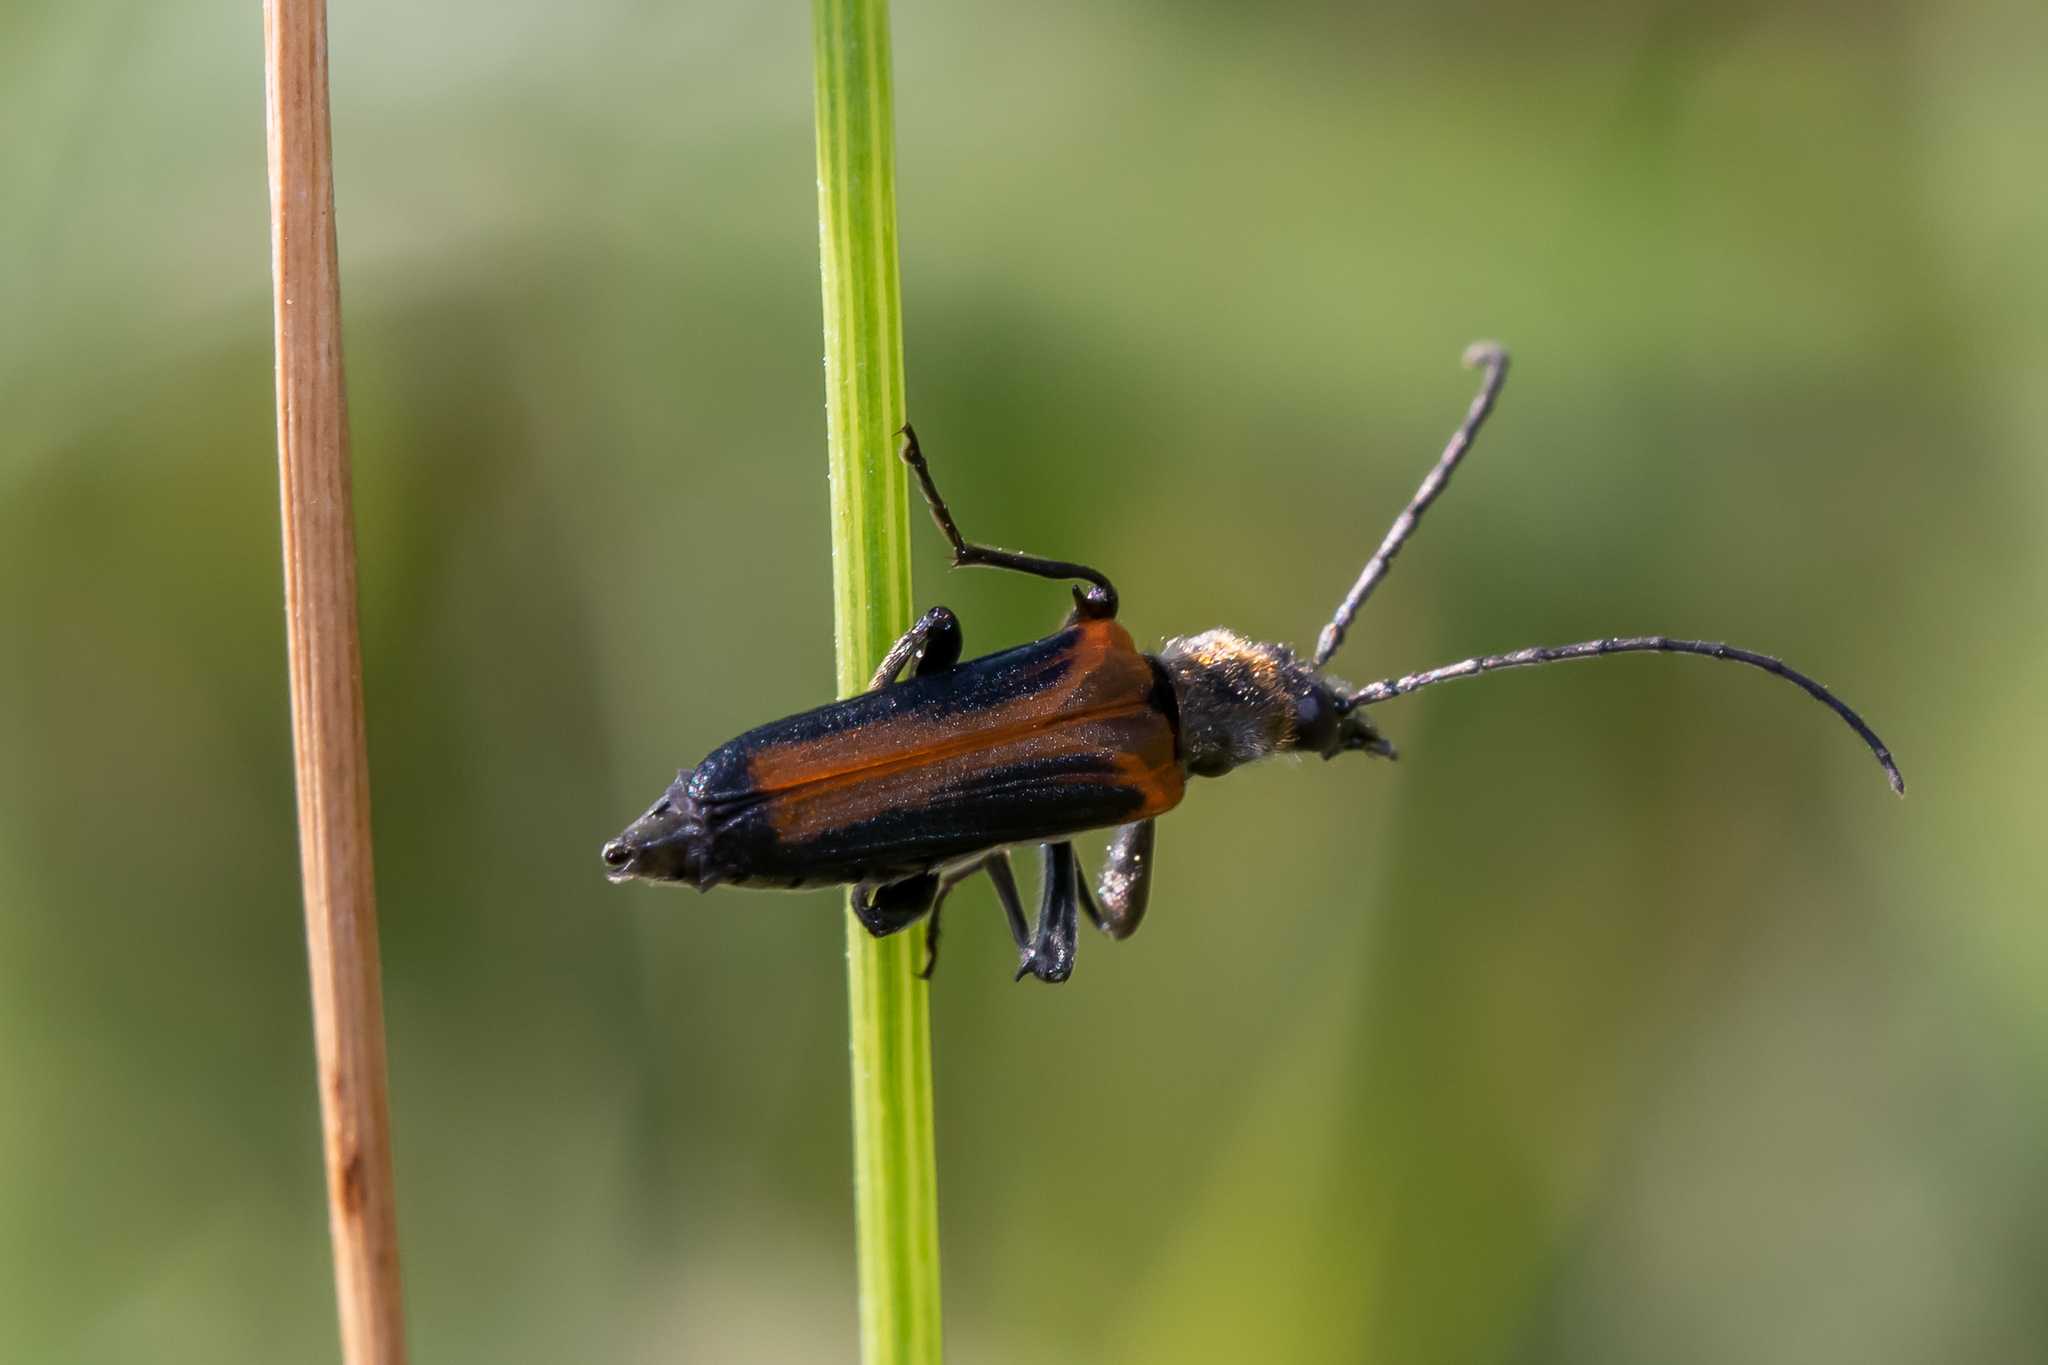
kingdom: Animalia
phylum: Arthropoda
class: Insecta
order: Coleoptera
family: Oedemeridae
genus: Anogcodes
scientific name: Anogcodes melanurus
